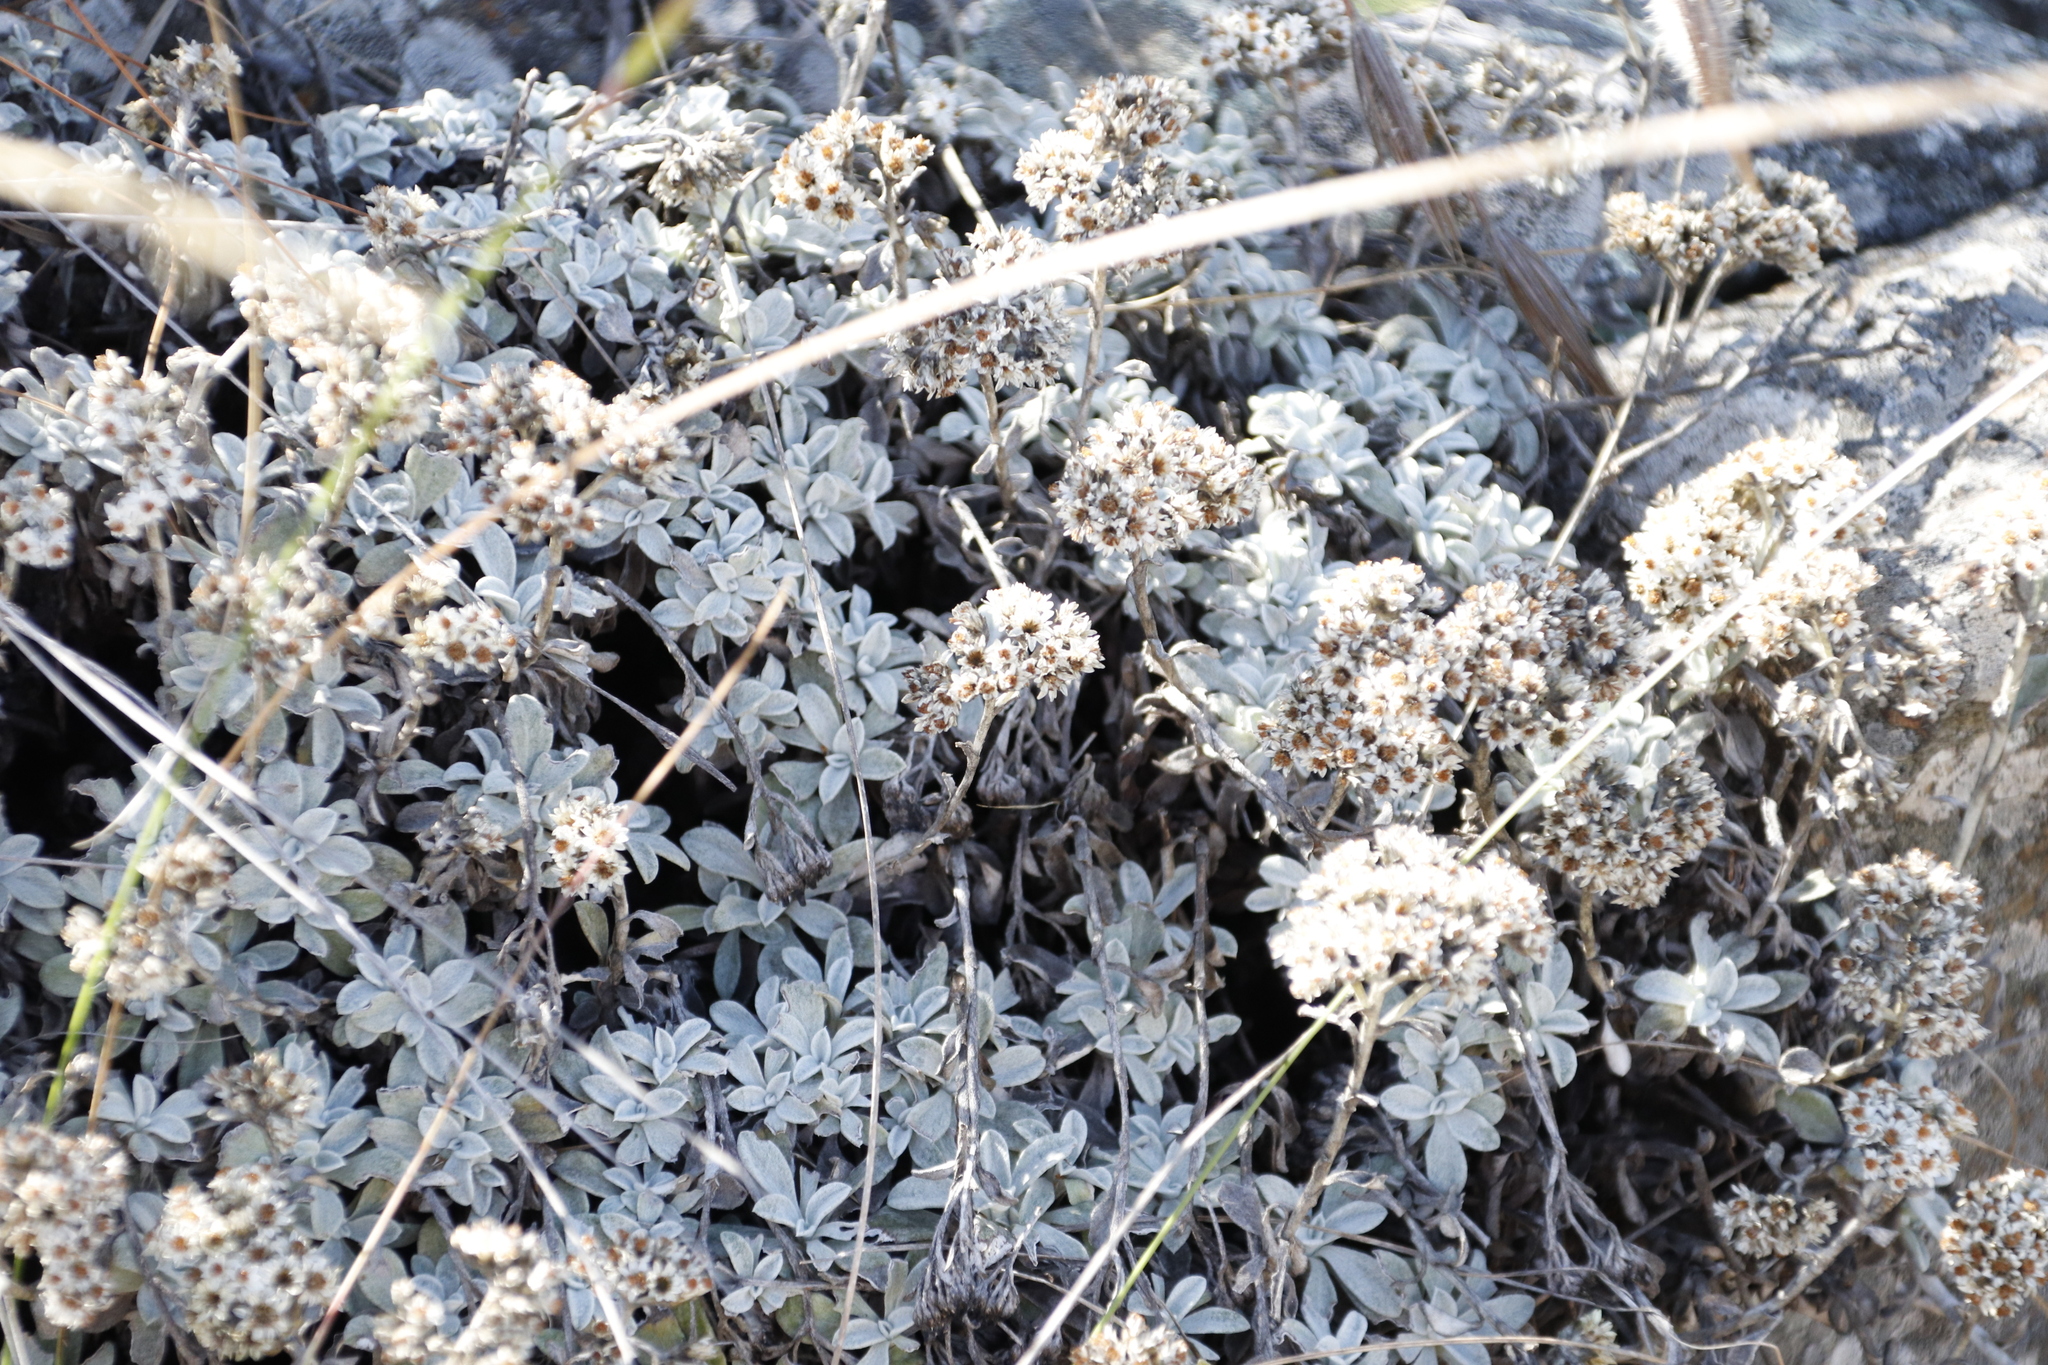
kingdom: Plantae
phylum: Tracheophyta
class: Magnoliopsida
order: Asterales
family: Asteraceae
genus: Helichrysum
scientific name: Helichrysum sutherlandii
